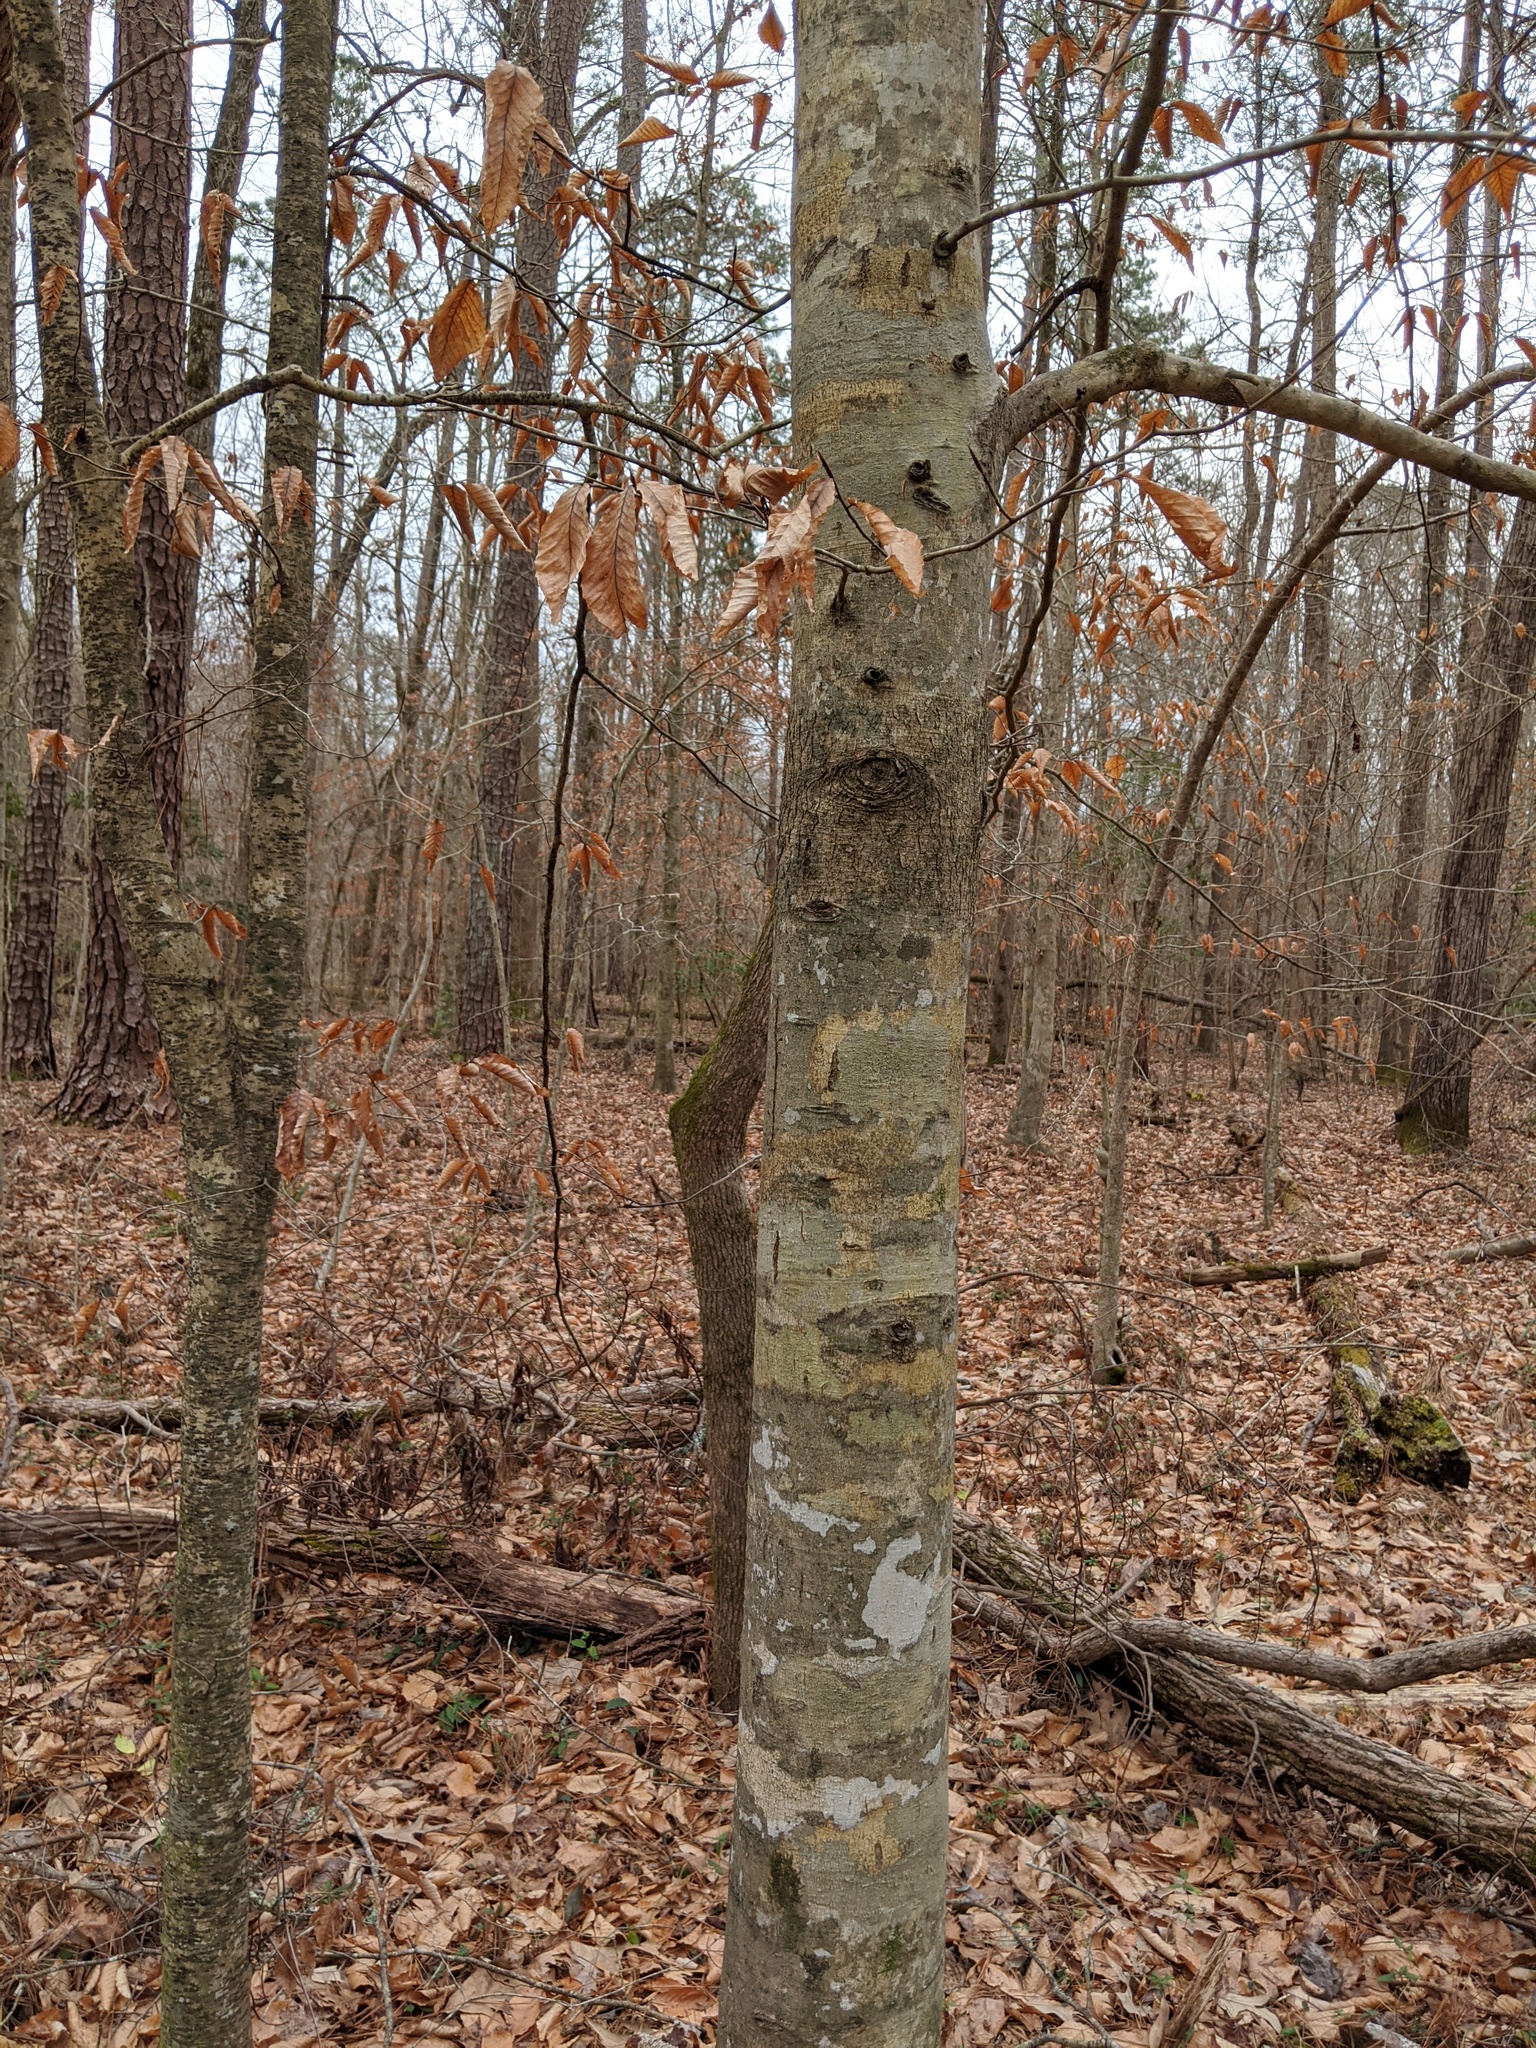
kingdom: Plantae
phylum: Tracheophyta
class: Magnoliopsida
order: Fagales
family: Fagaceae
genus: Fagus
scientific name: Fagus grandifolia
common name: American beech
